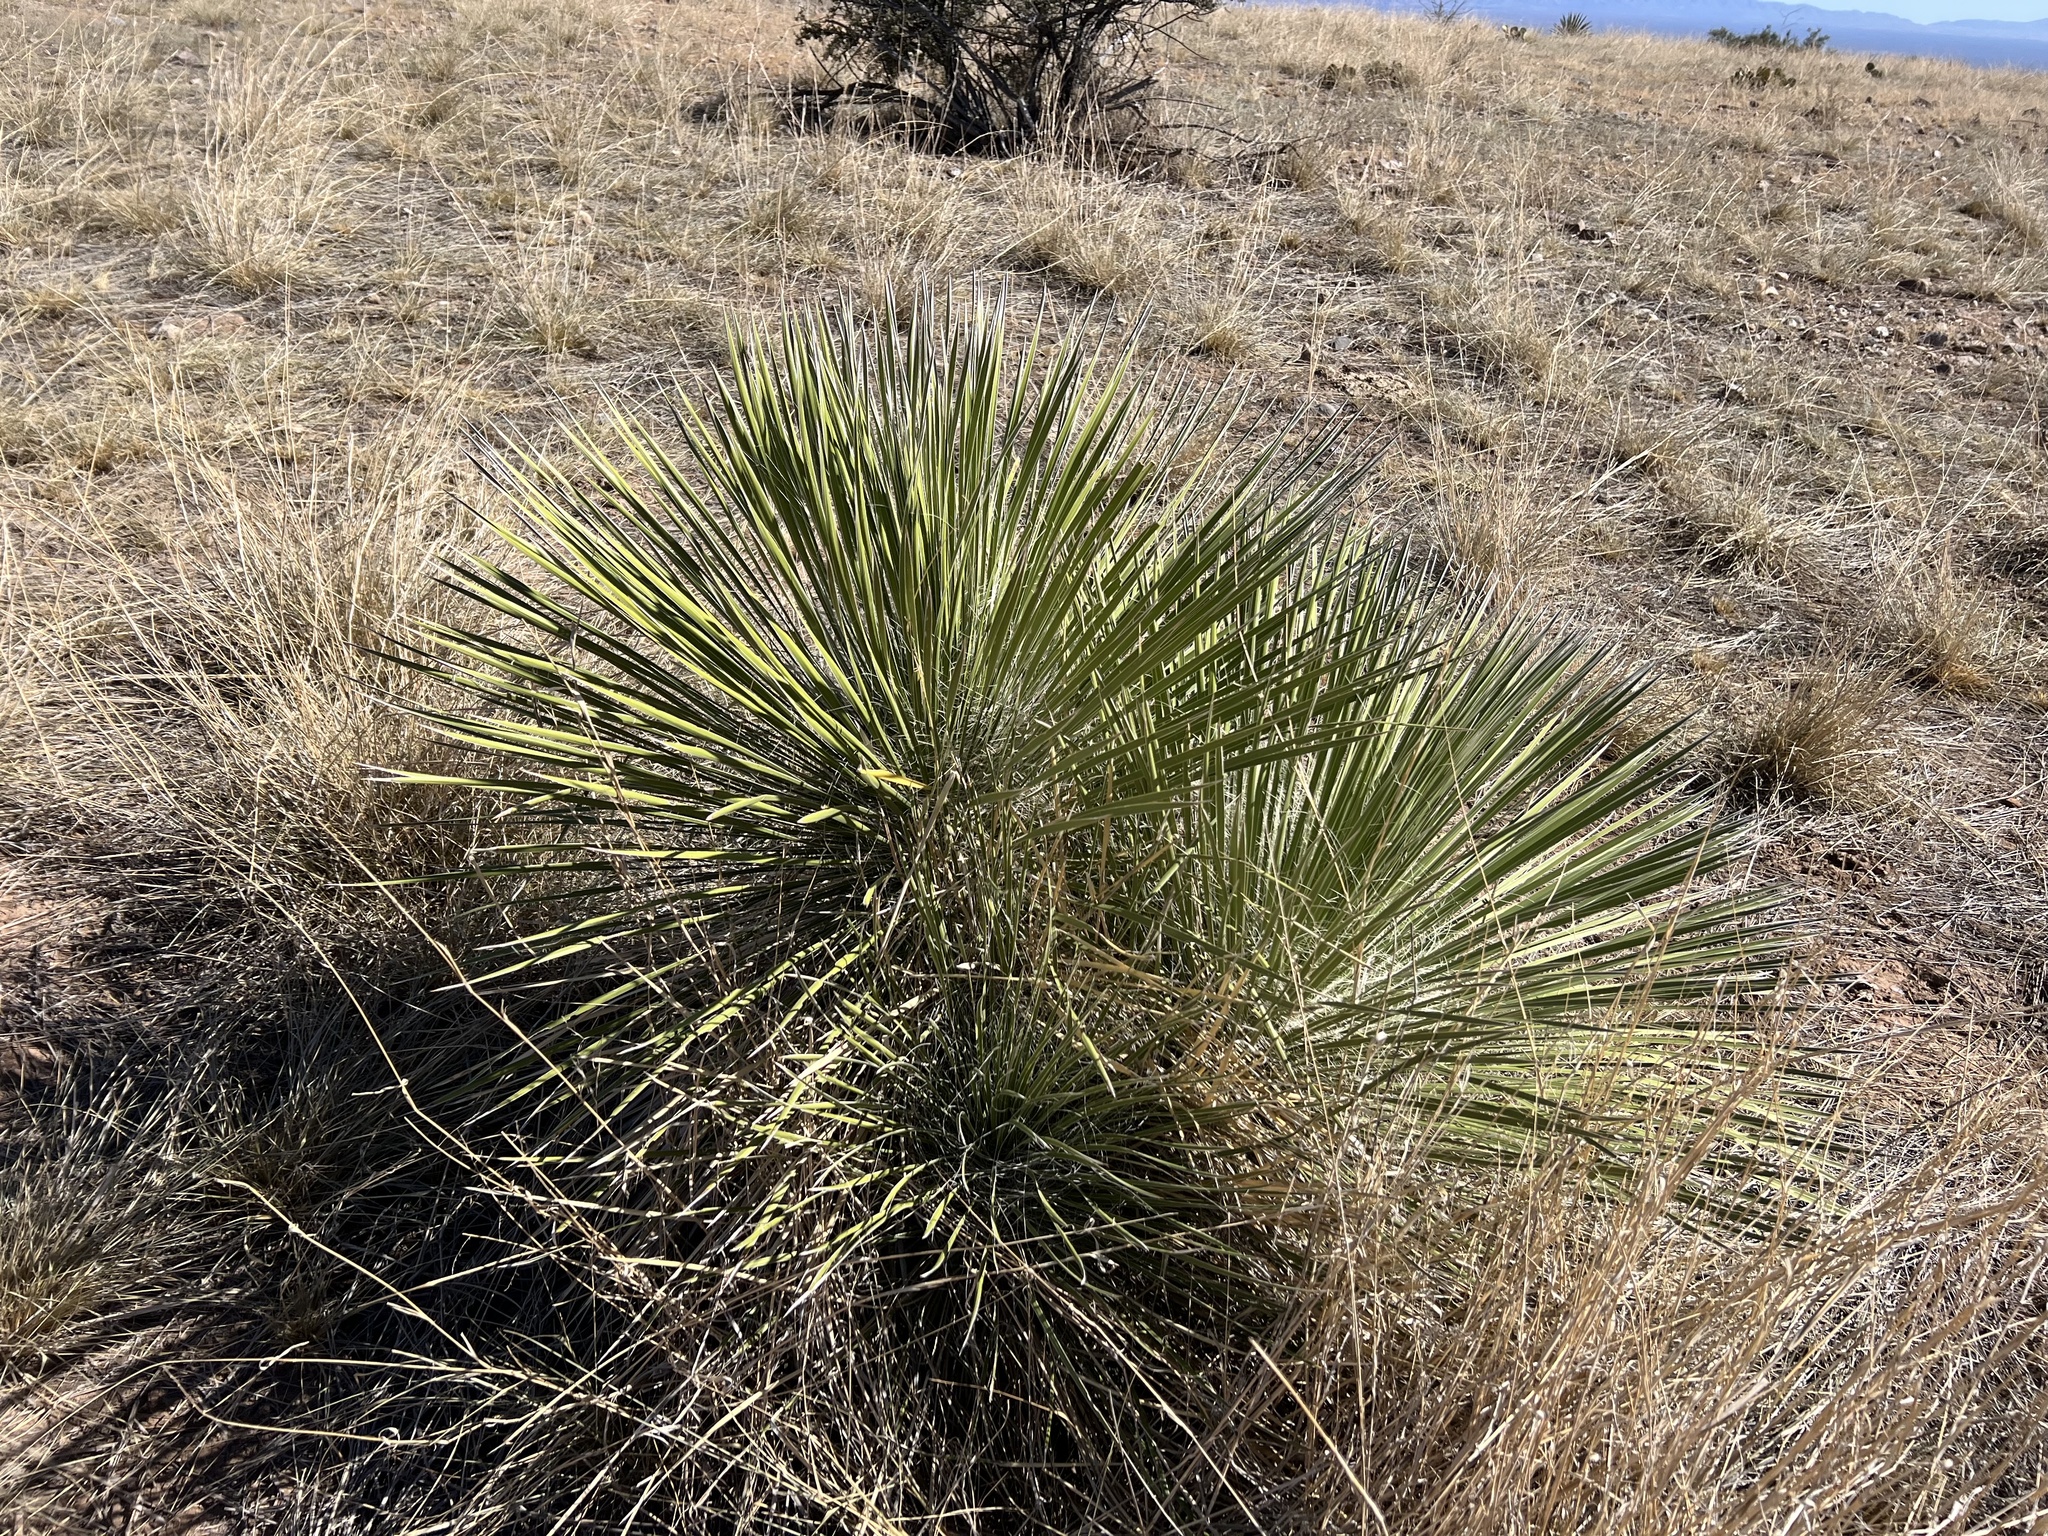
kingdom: Plantae
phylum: Tracheophyta
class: Liliopsida
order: Asparagales
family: Asparagaceae
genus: Yucca
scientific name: Yucca elata
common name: Palmella
